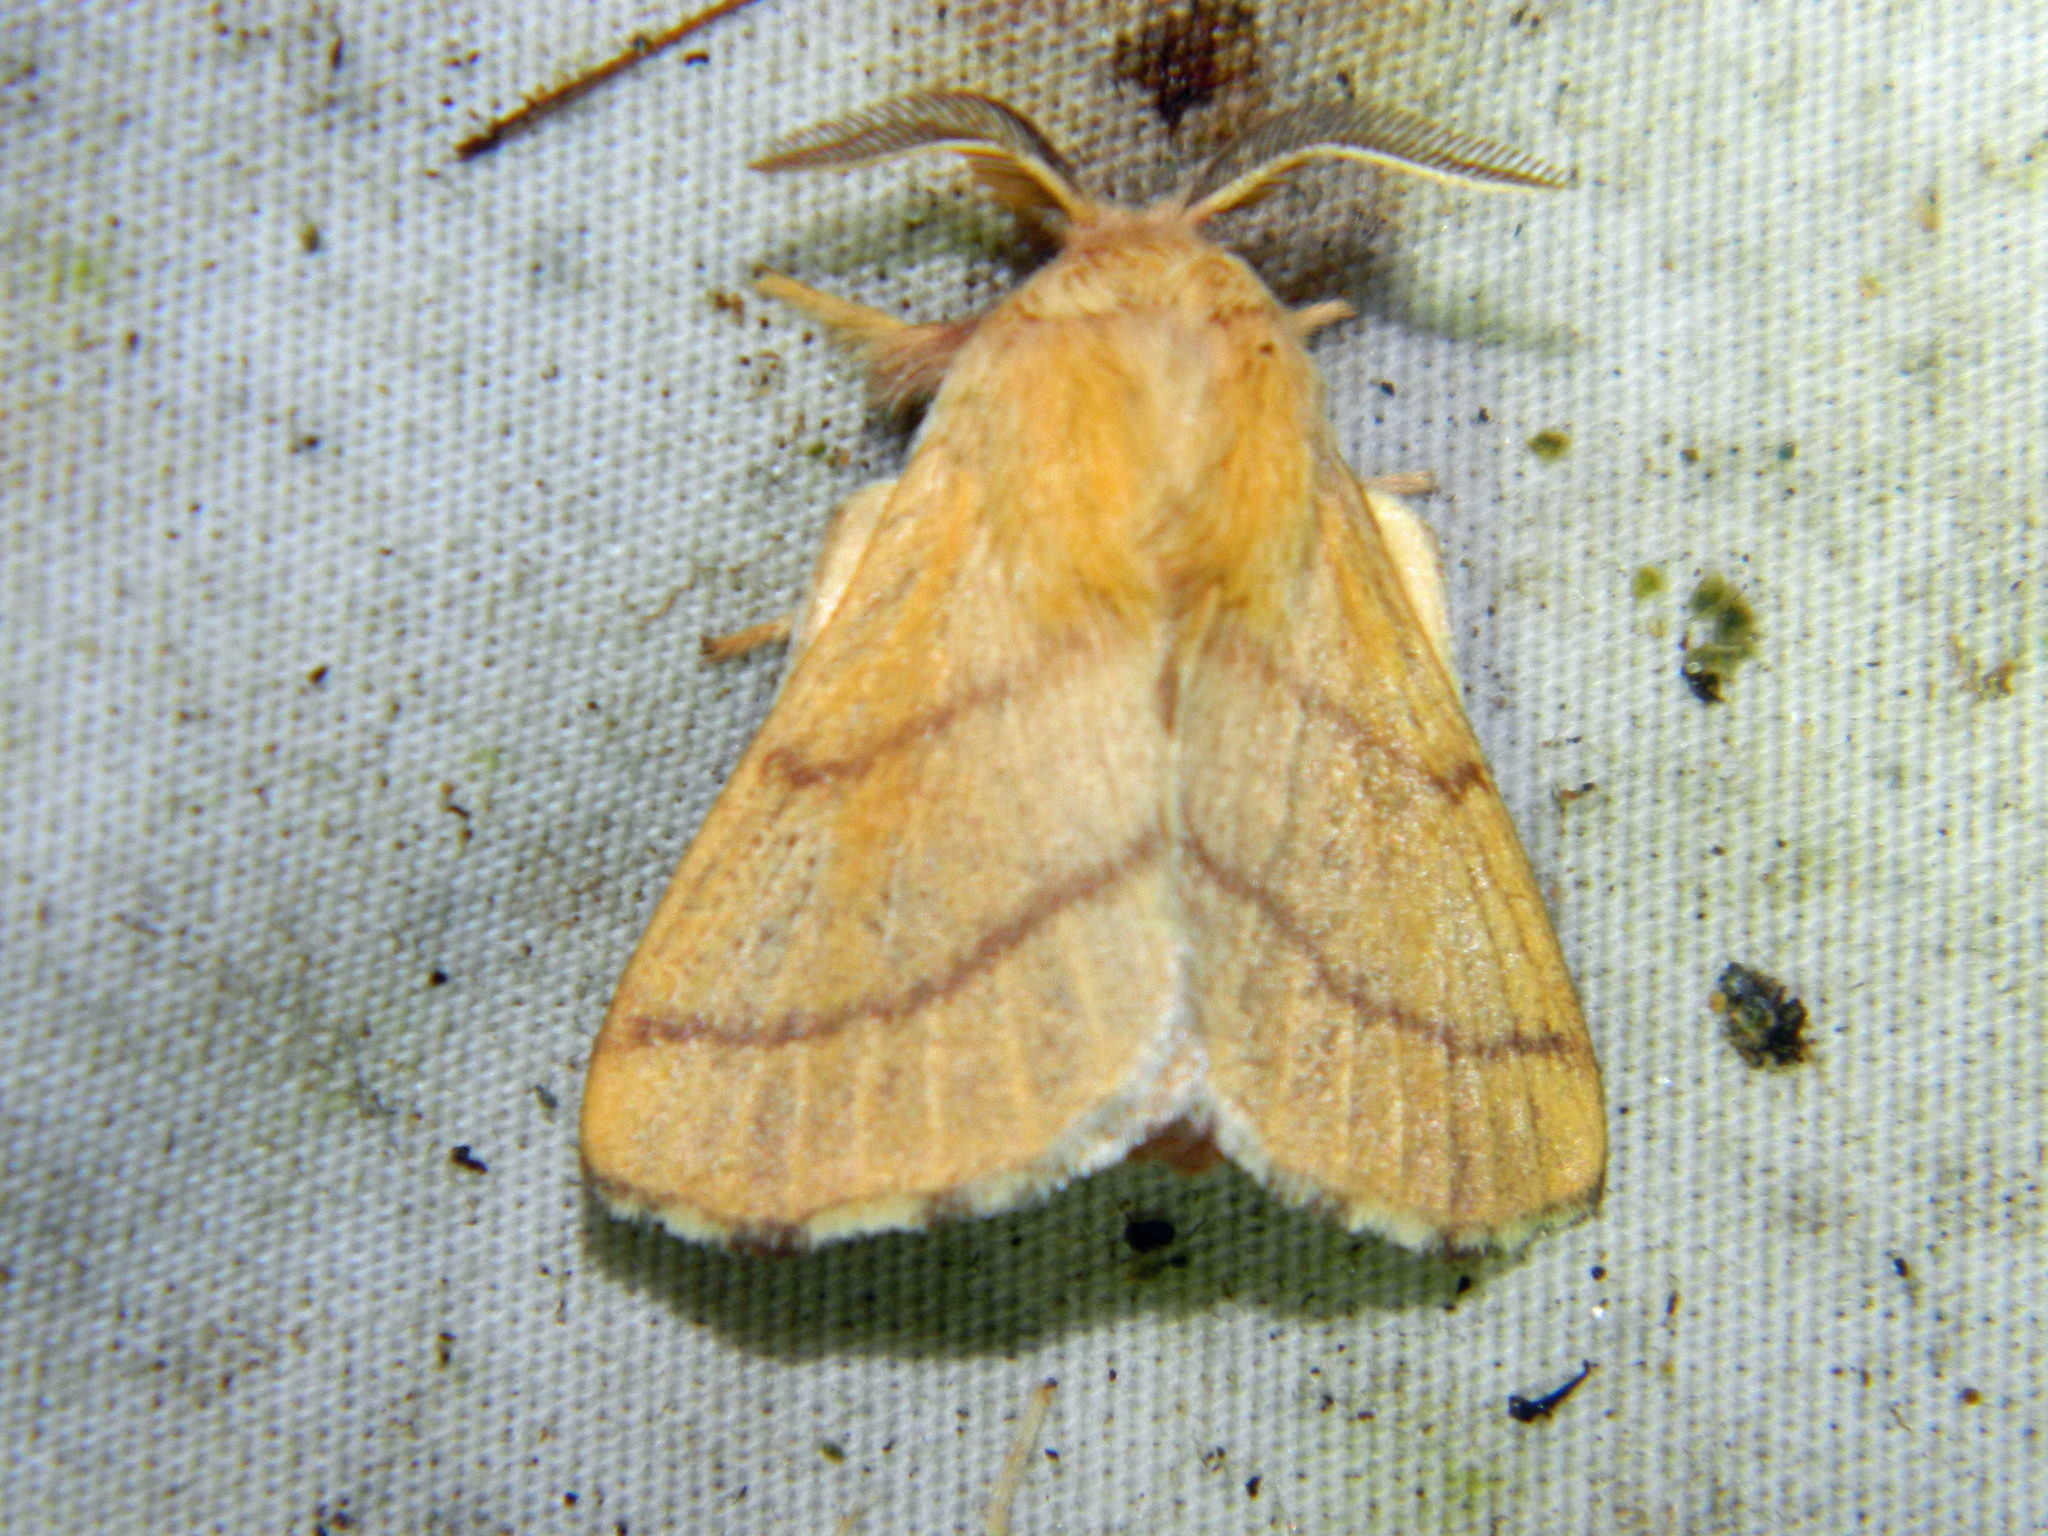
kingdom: Animalia
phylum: Arthropoda
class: Insecta
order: Lepidoptera
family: Lasiocampidae
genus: Malacosoma
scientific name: Malacosoma disstria
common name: Forest tent caterpillar
